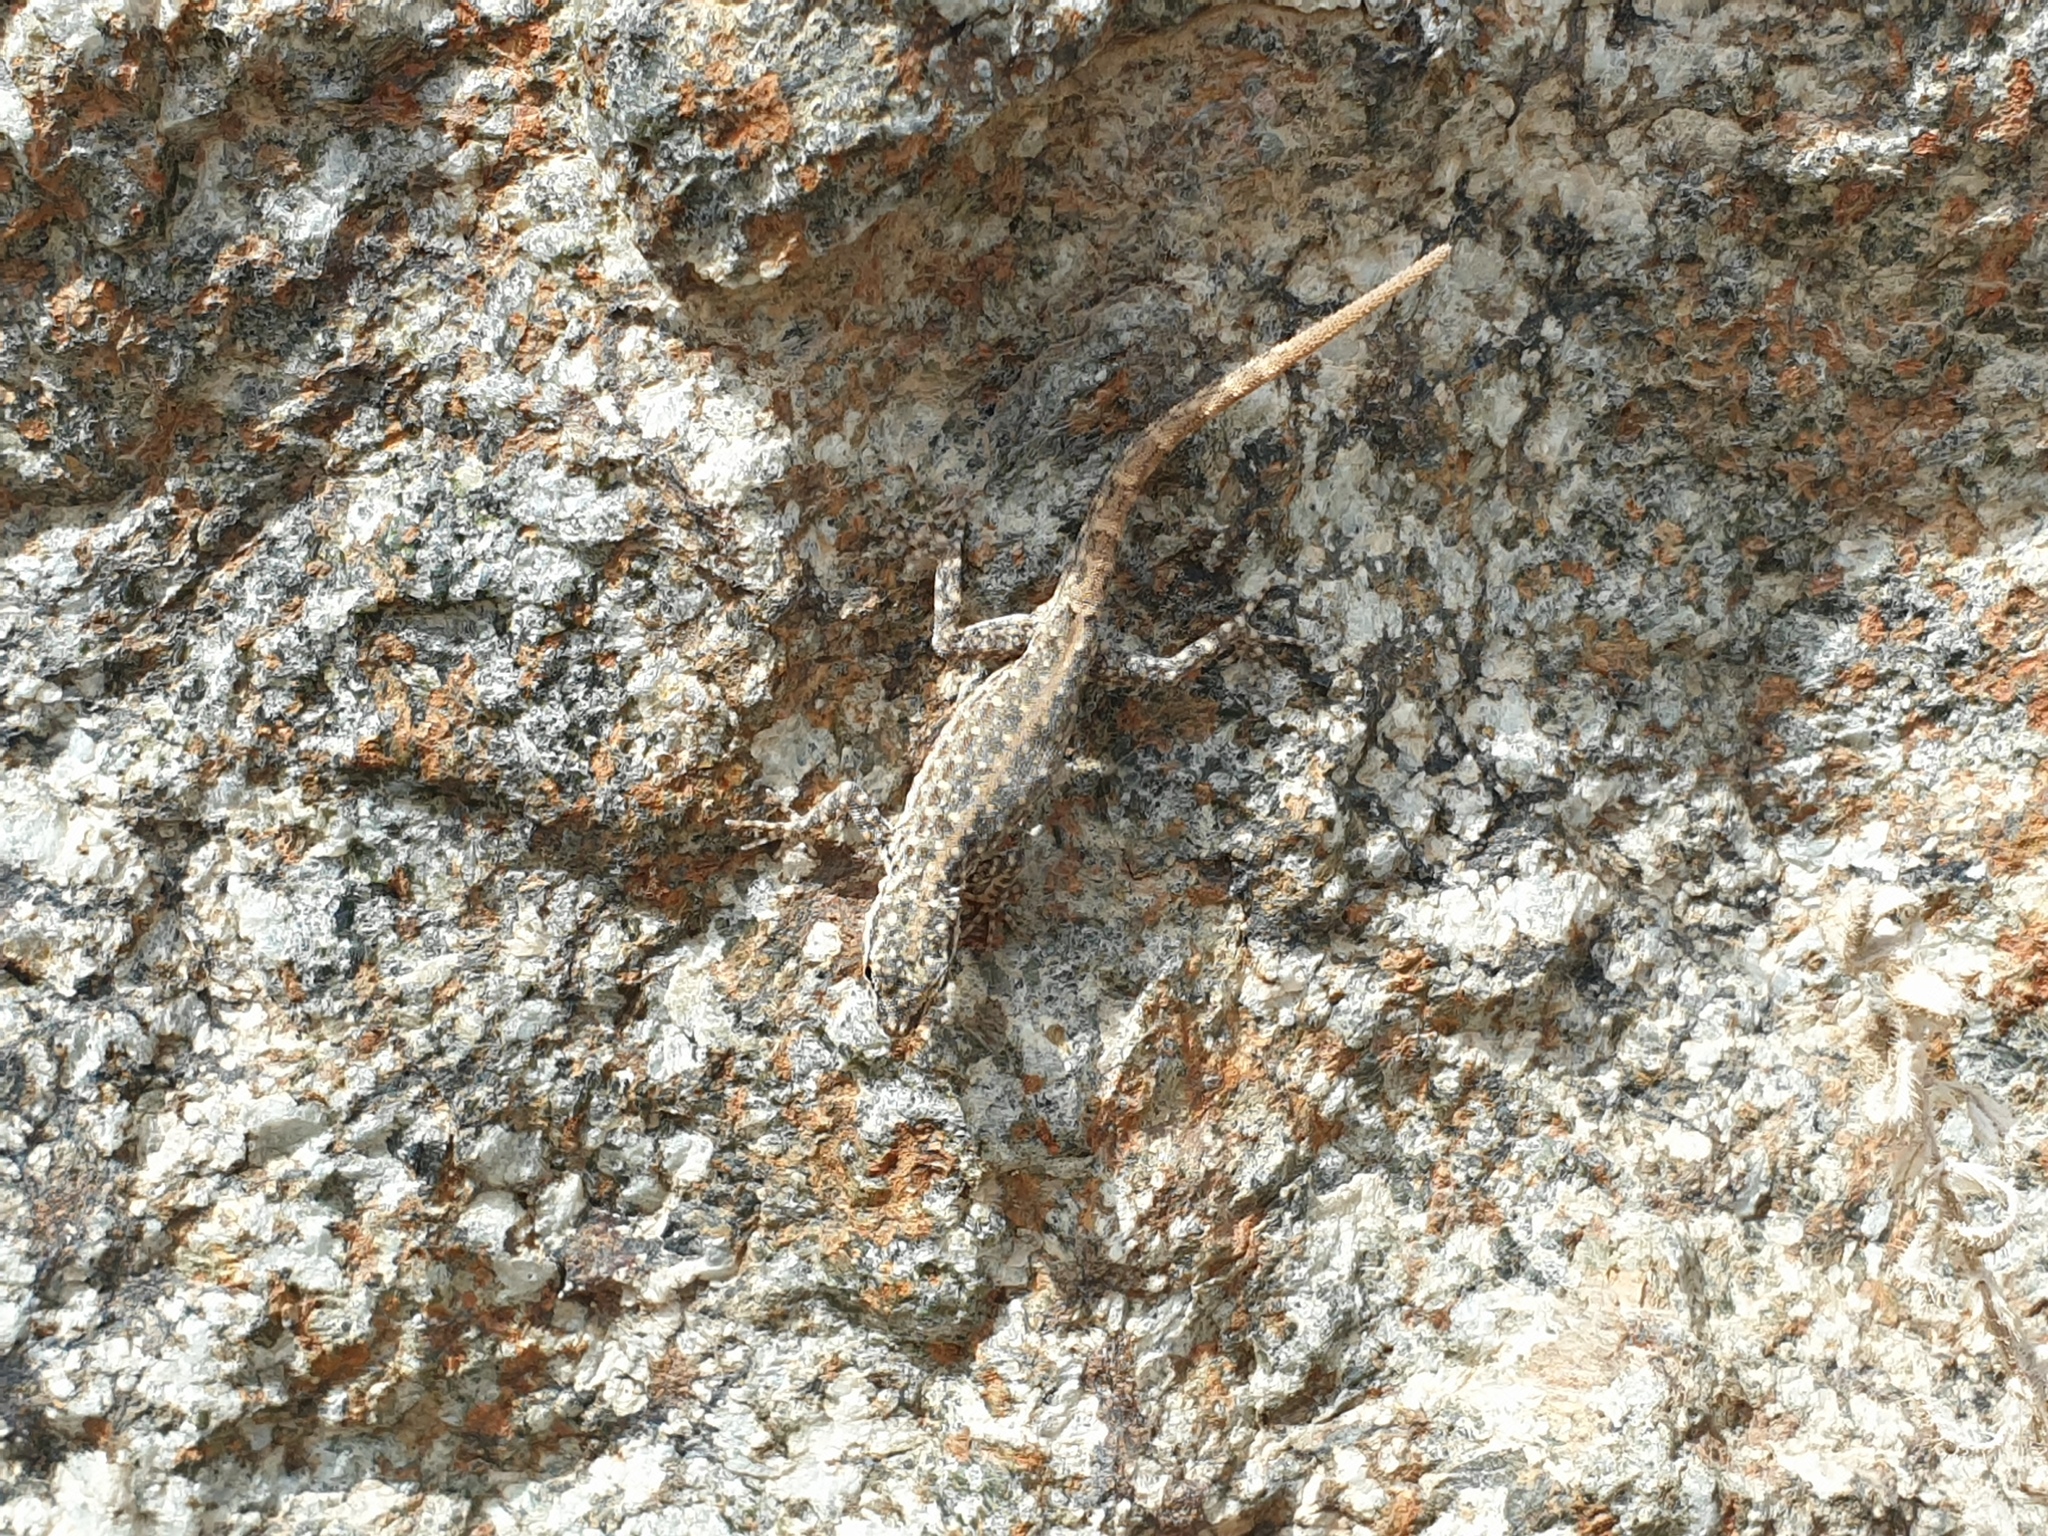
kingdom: Animalia
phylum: Chordata
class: Squamata
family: Sphaerodactylidae
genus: Pristurus
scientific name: Pristurus rupestris
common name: Blanford’s semaphore gecko
